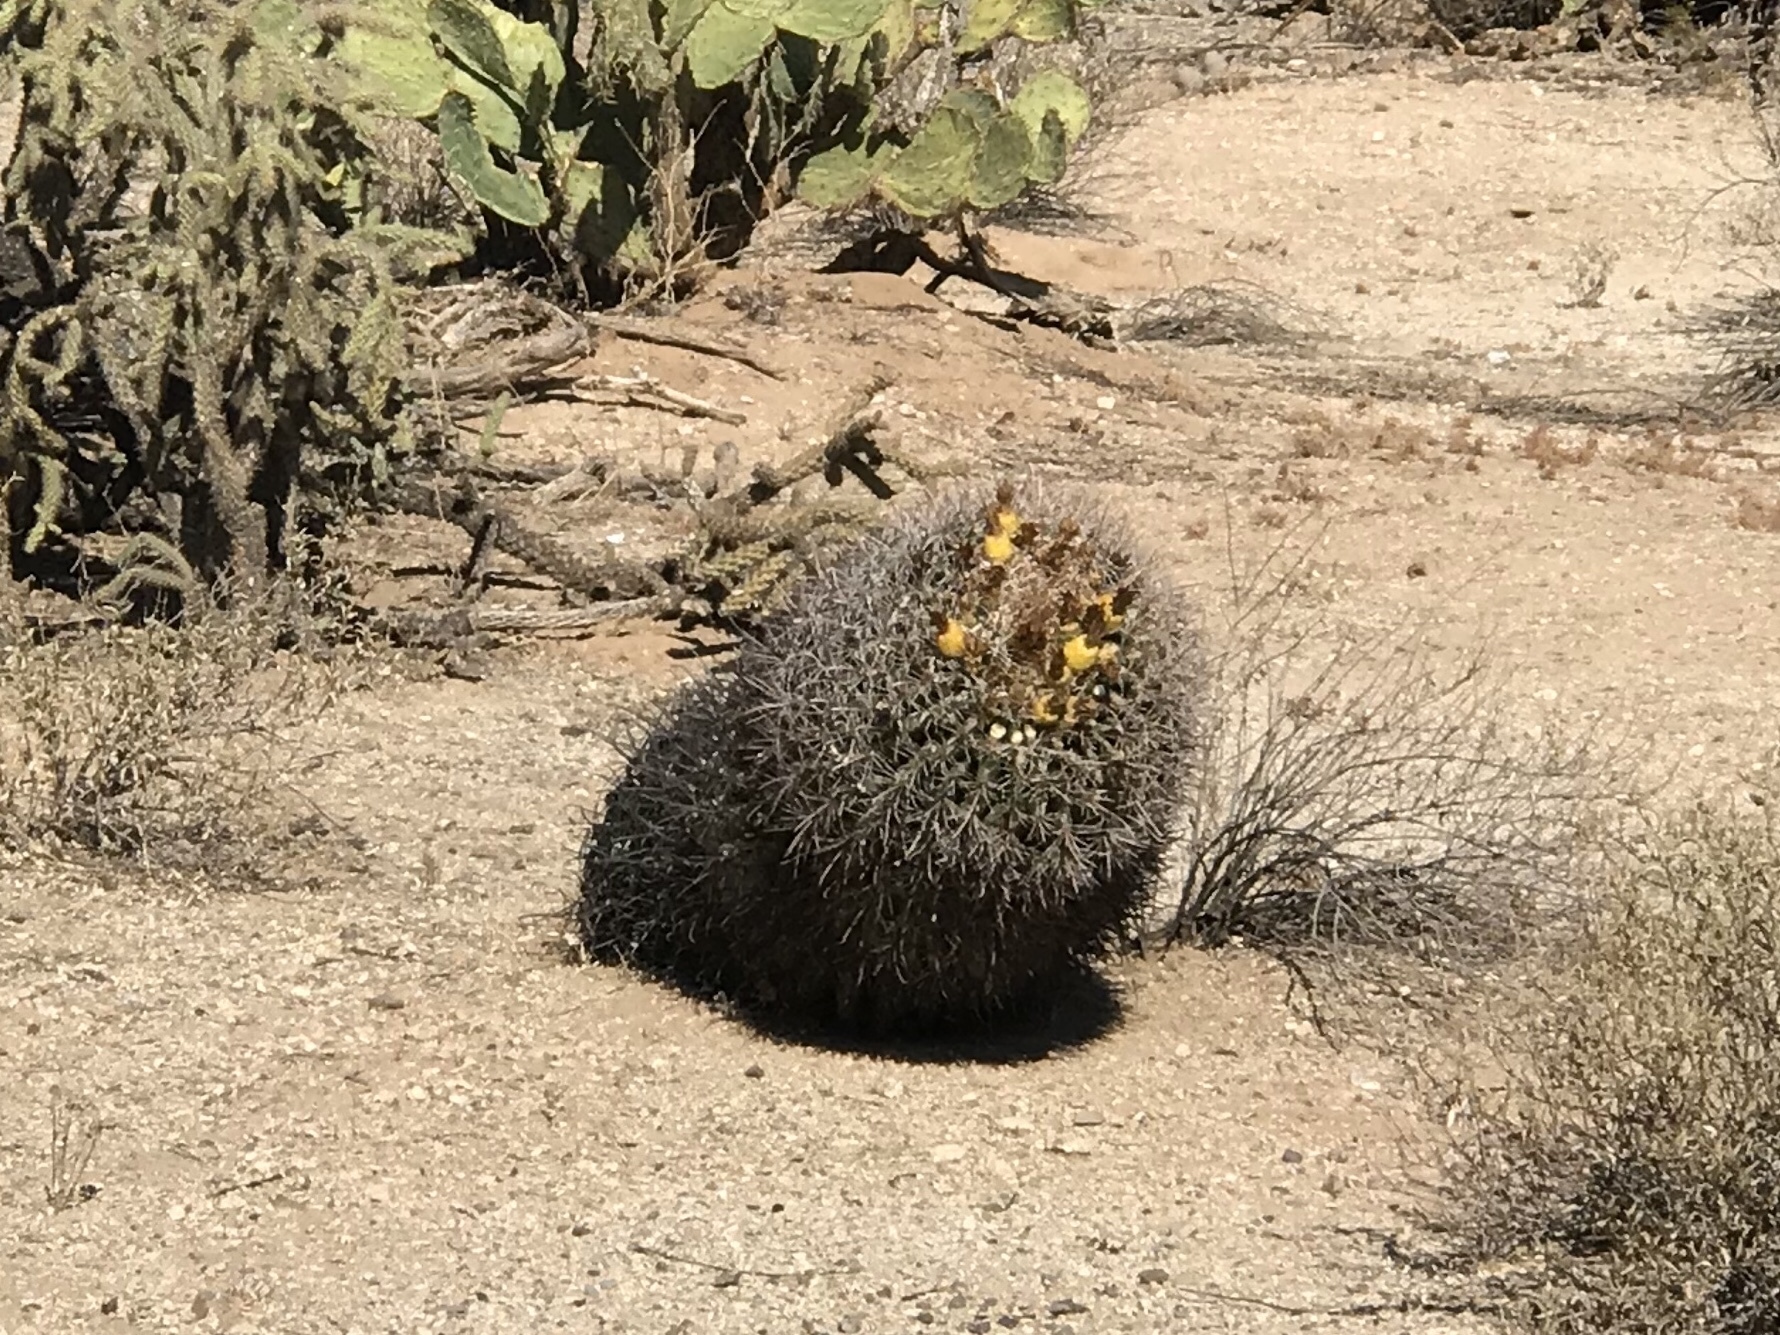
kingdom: Plantae
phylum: Tracheophyta
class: Magnoliopsida
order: Caryophyllales
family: Cactaceae
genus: Ferocactus
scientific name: Ferocactus wislizeni
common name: Candy barrel cactus
